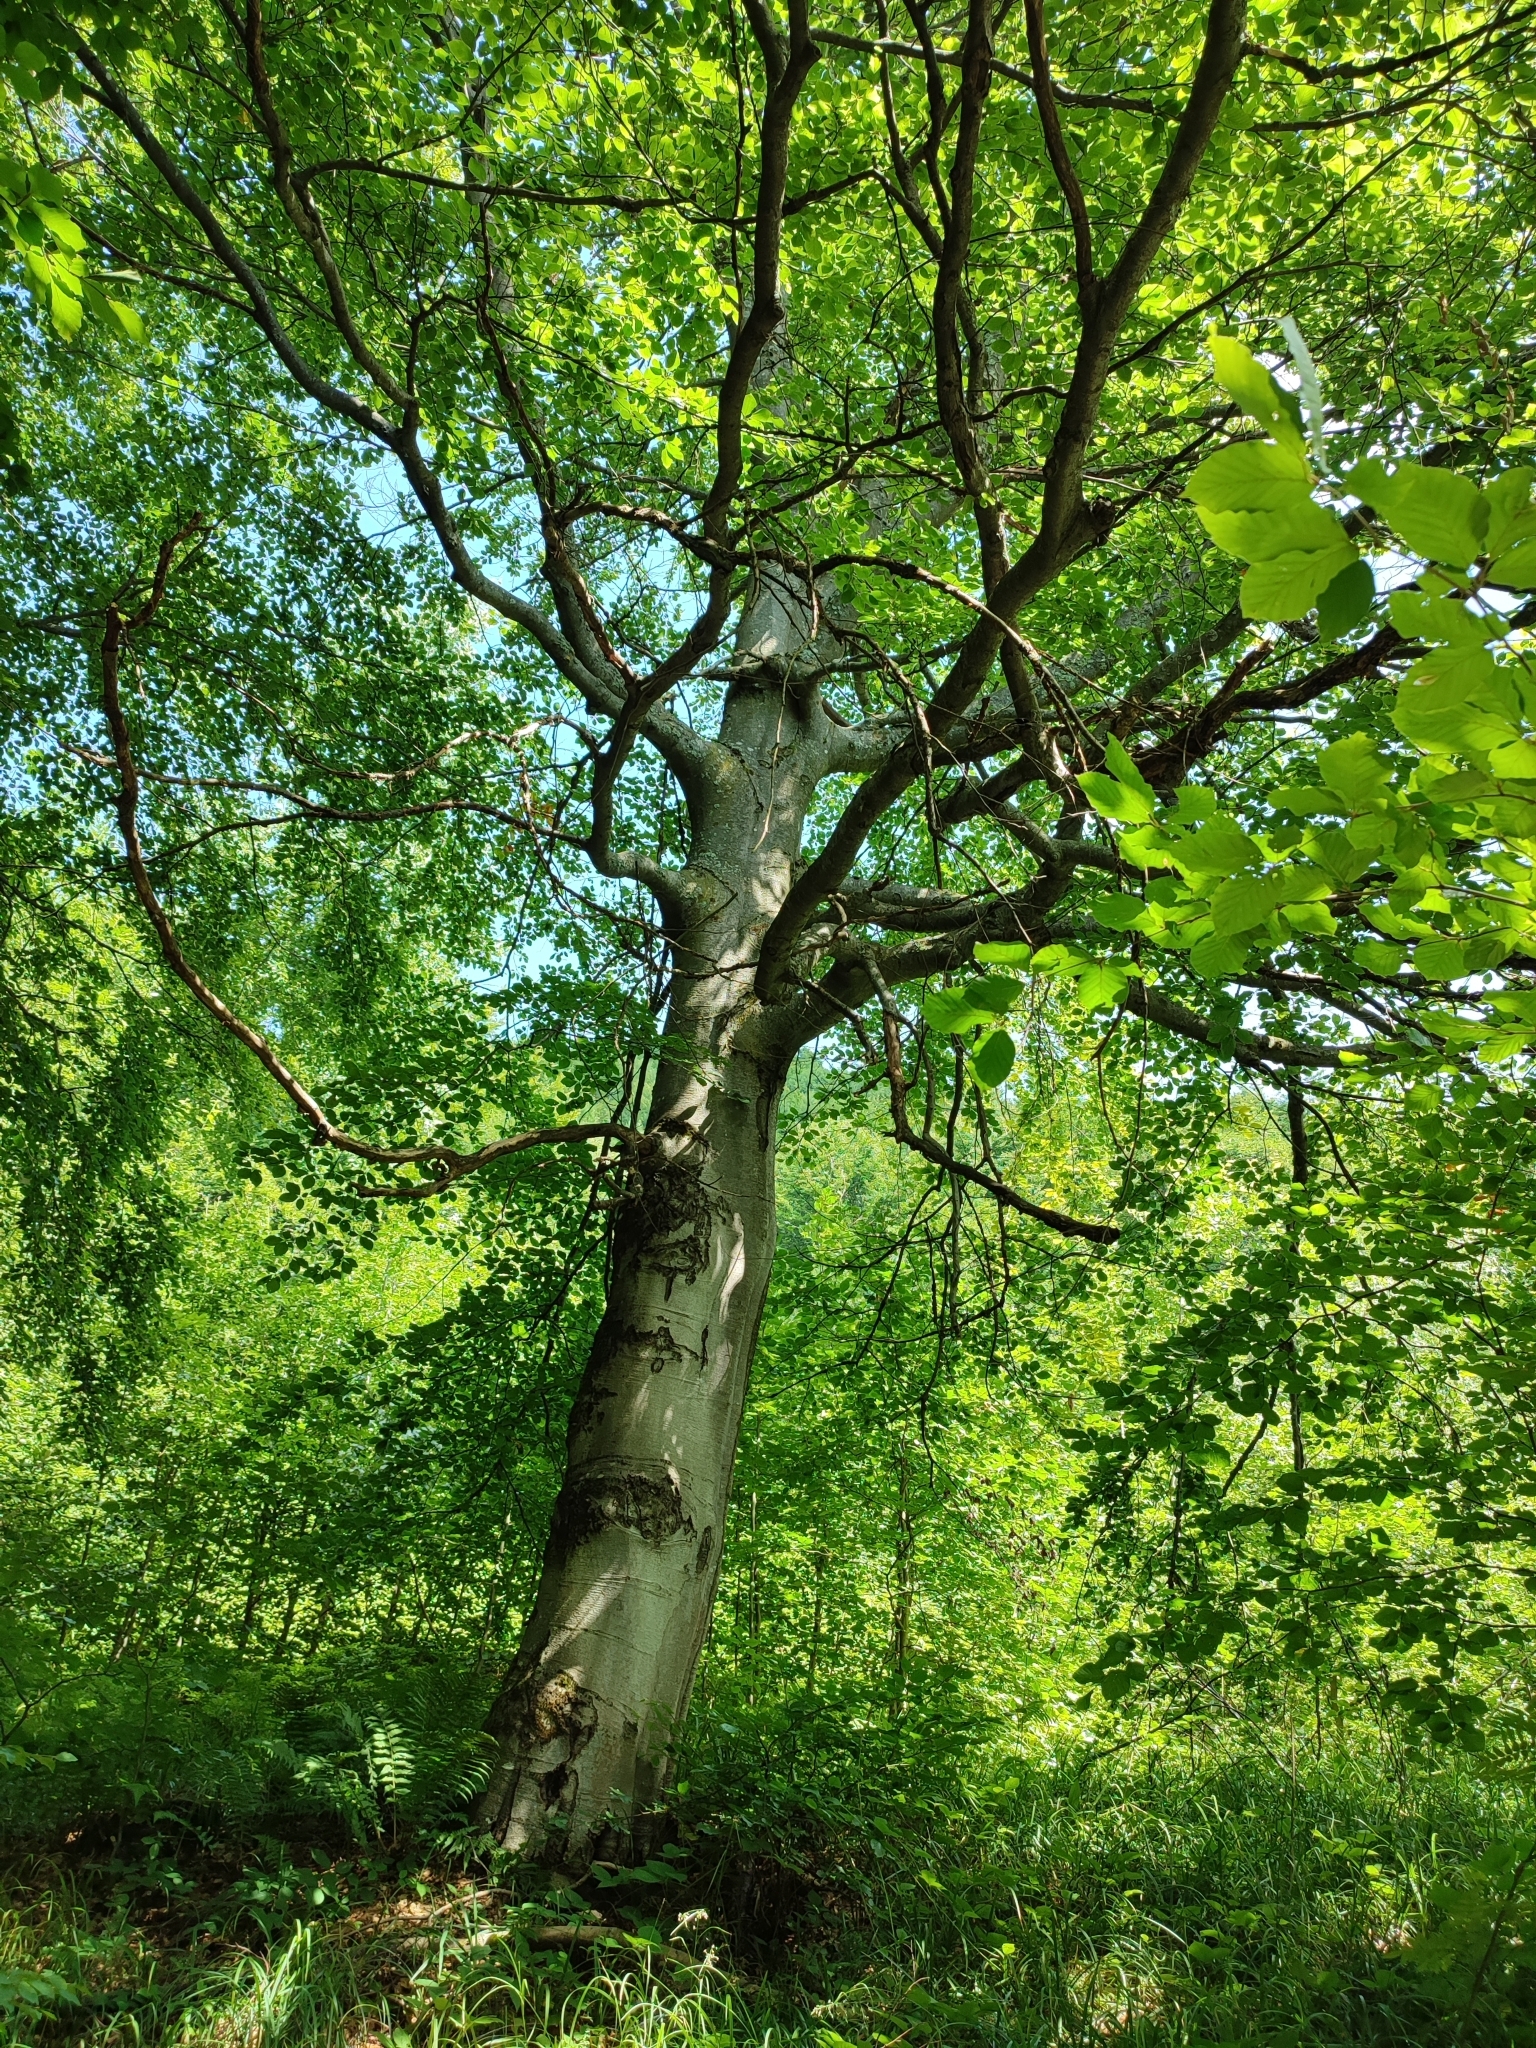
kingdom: Plantae
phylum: Tracheophyta
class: Magnoliopsida
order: Fagales
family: Fagaceae
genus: Fagus
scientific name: Fagus sylvatica
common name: Beech
